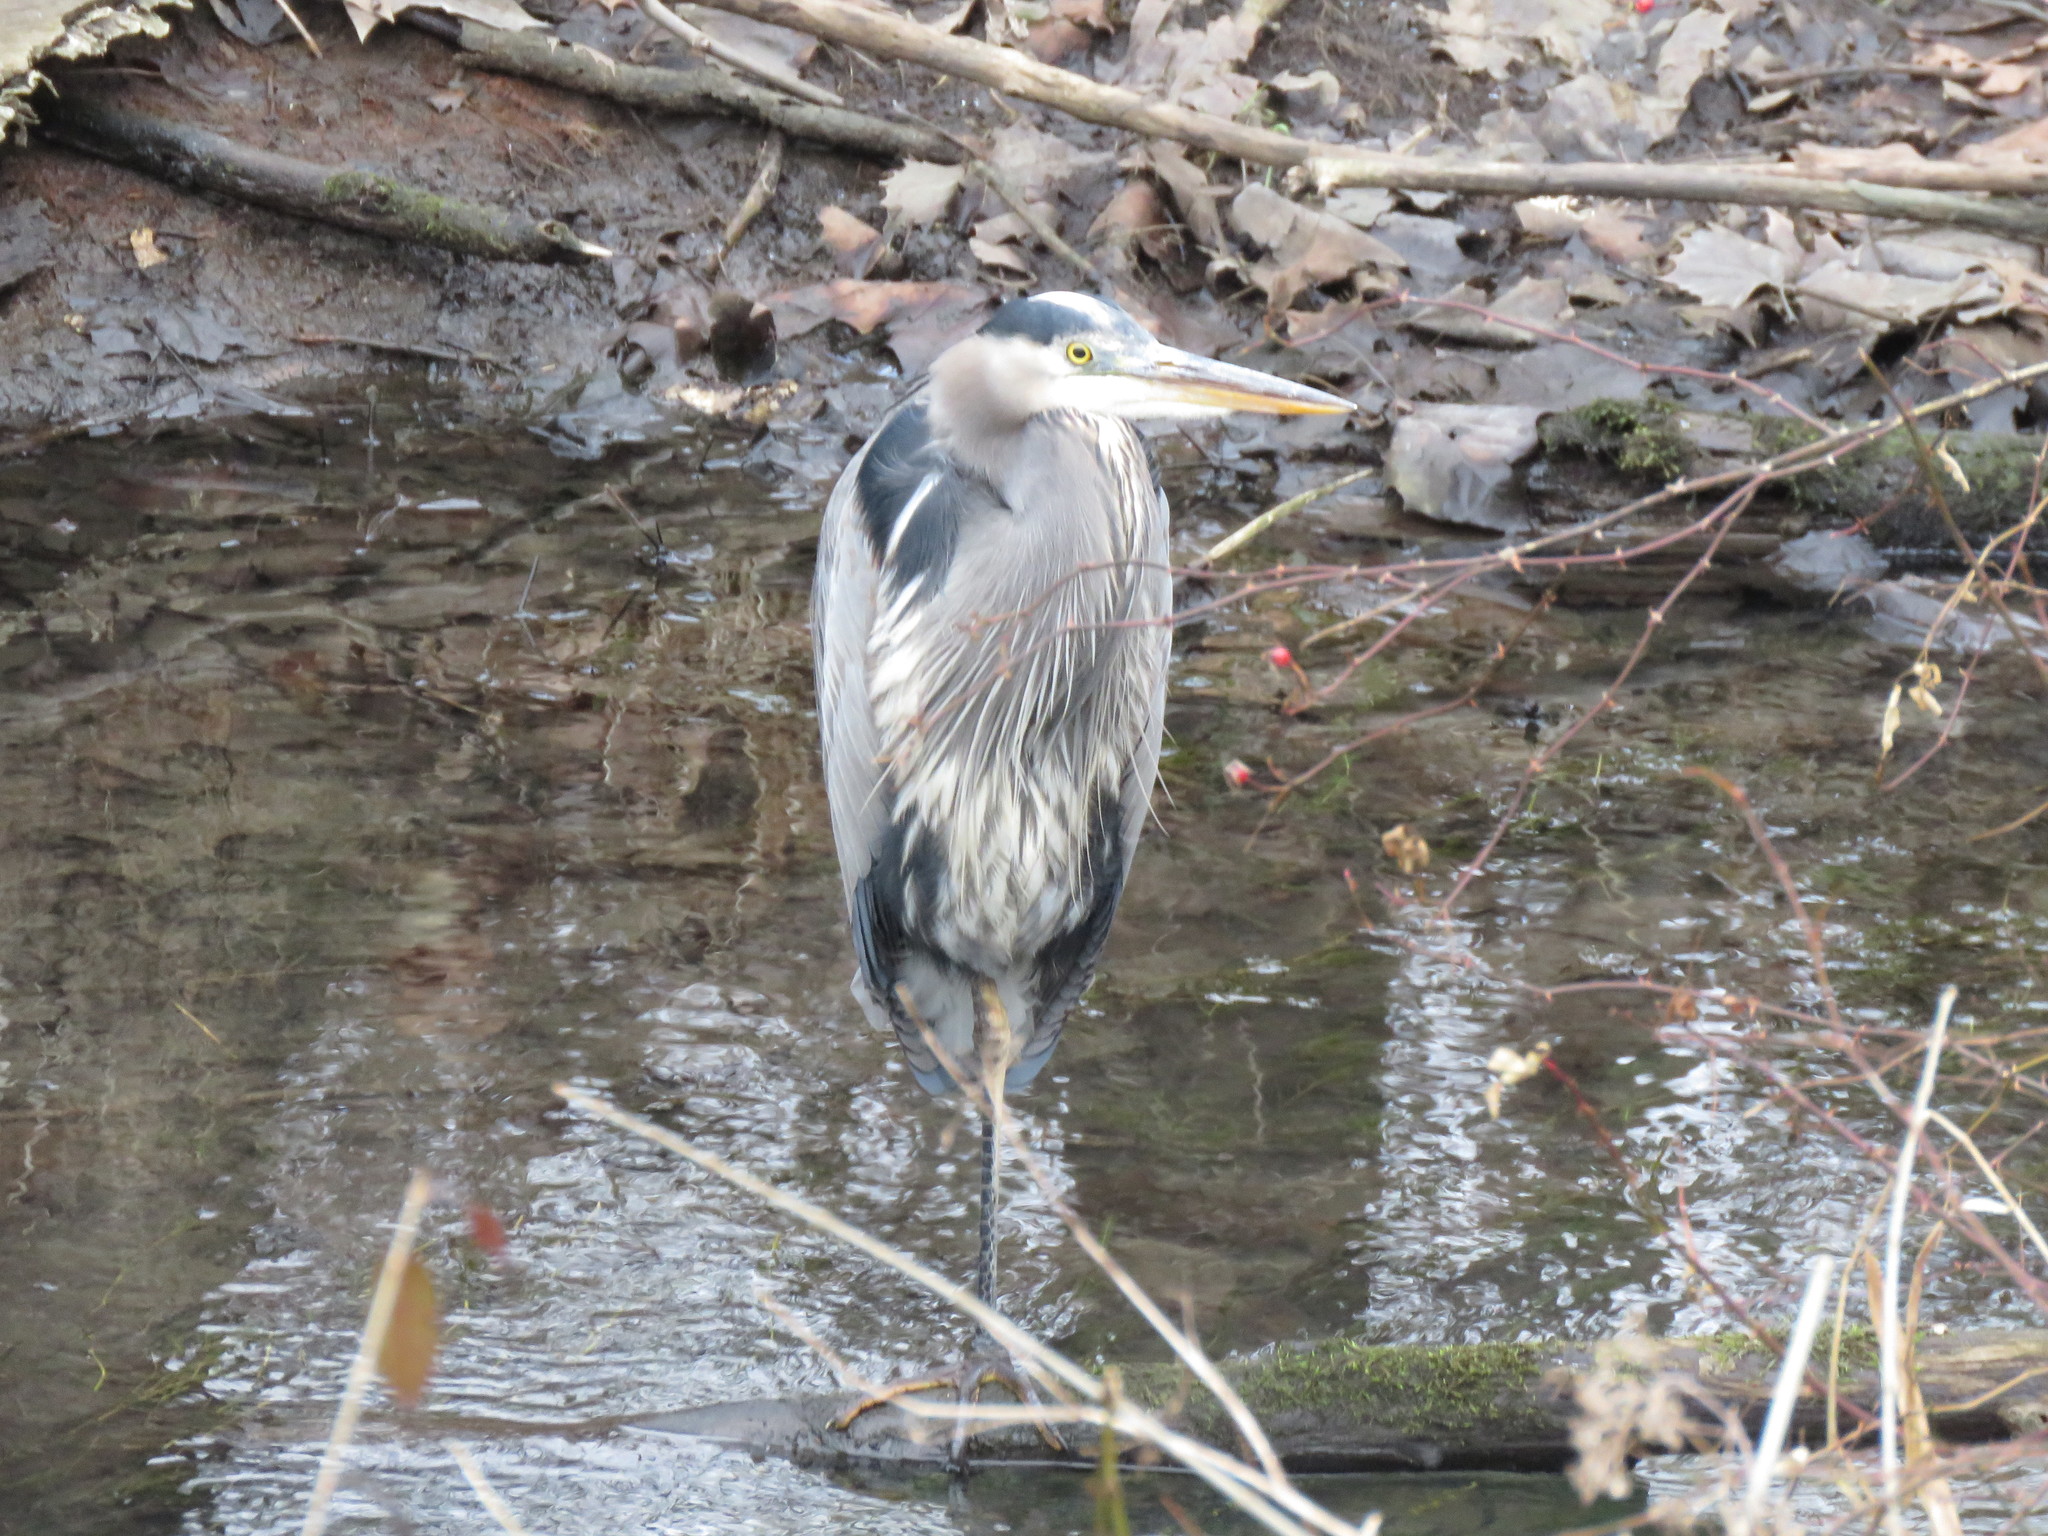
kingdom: Animalia
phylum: Chordata
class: Aves
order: Pelecaniformes
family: Ardeidae
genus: Ardea
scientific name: Ardea herodias
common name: Great blue heron
